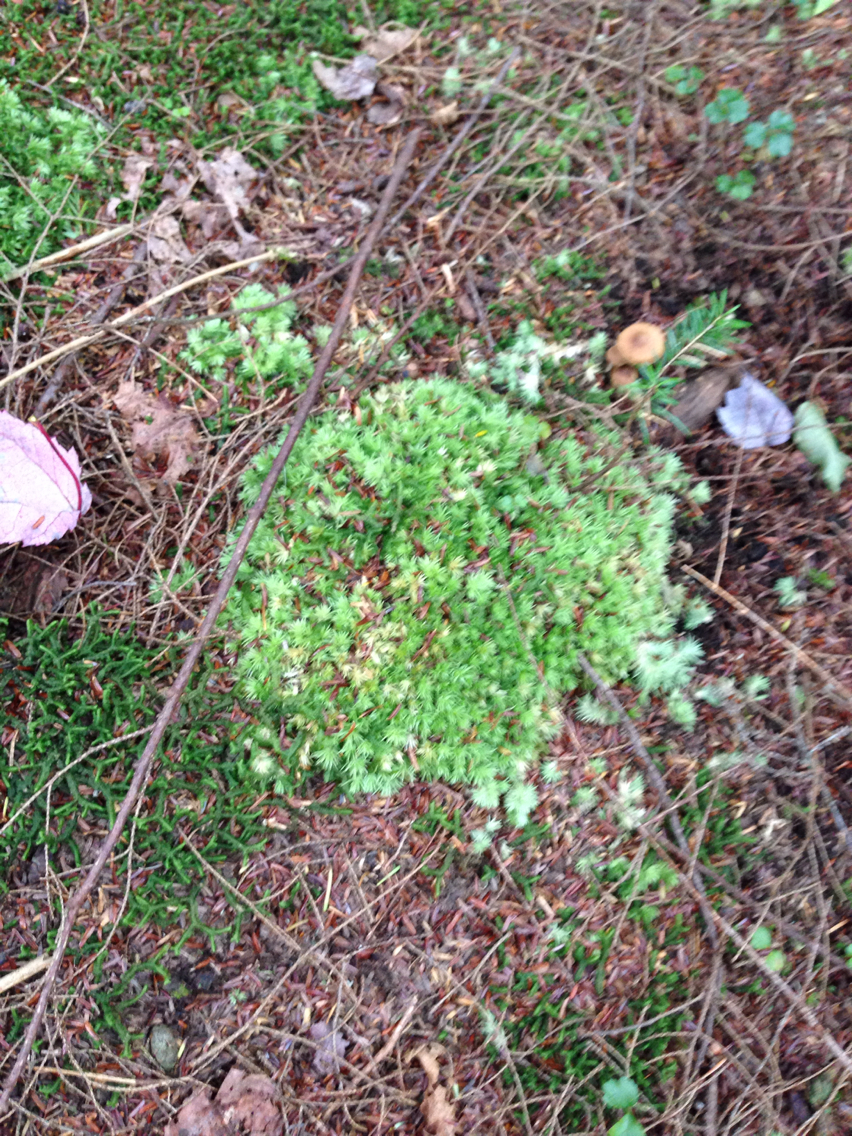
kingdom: Plantae
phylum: Bryophyta
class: Bryopsida
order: Dicranales
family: Leucobryaceae
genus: Leucobryum
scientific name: Leucobryum glaucum
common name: Large white-moss
